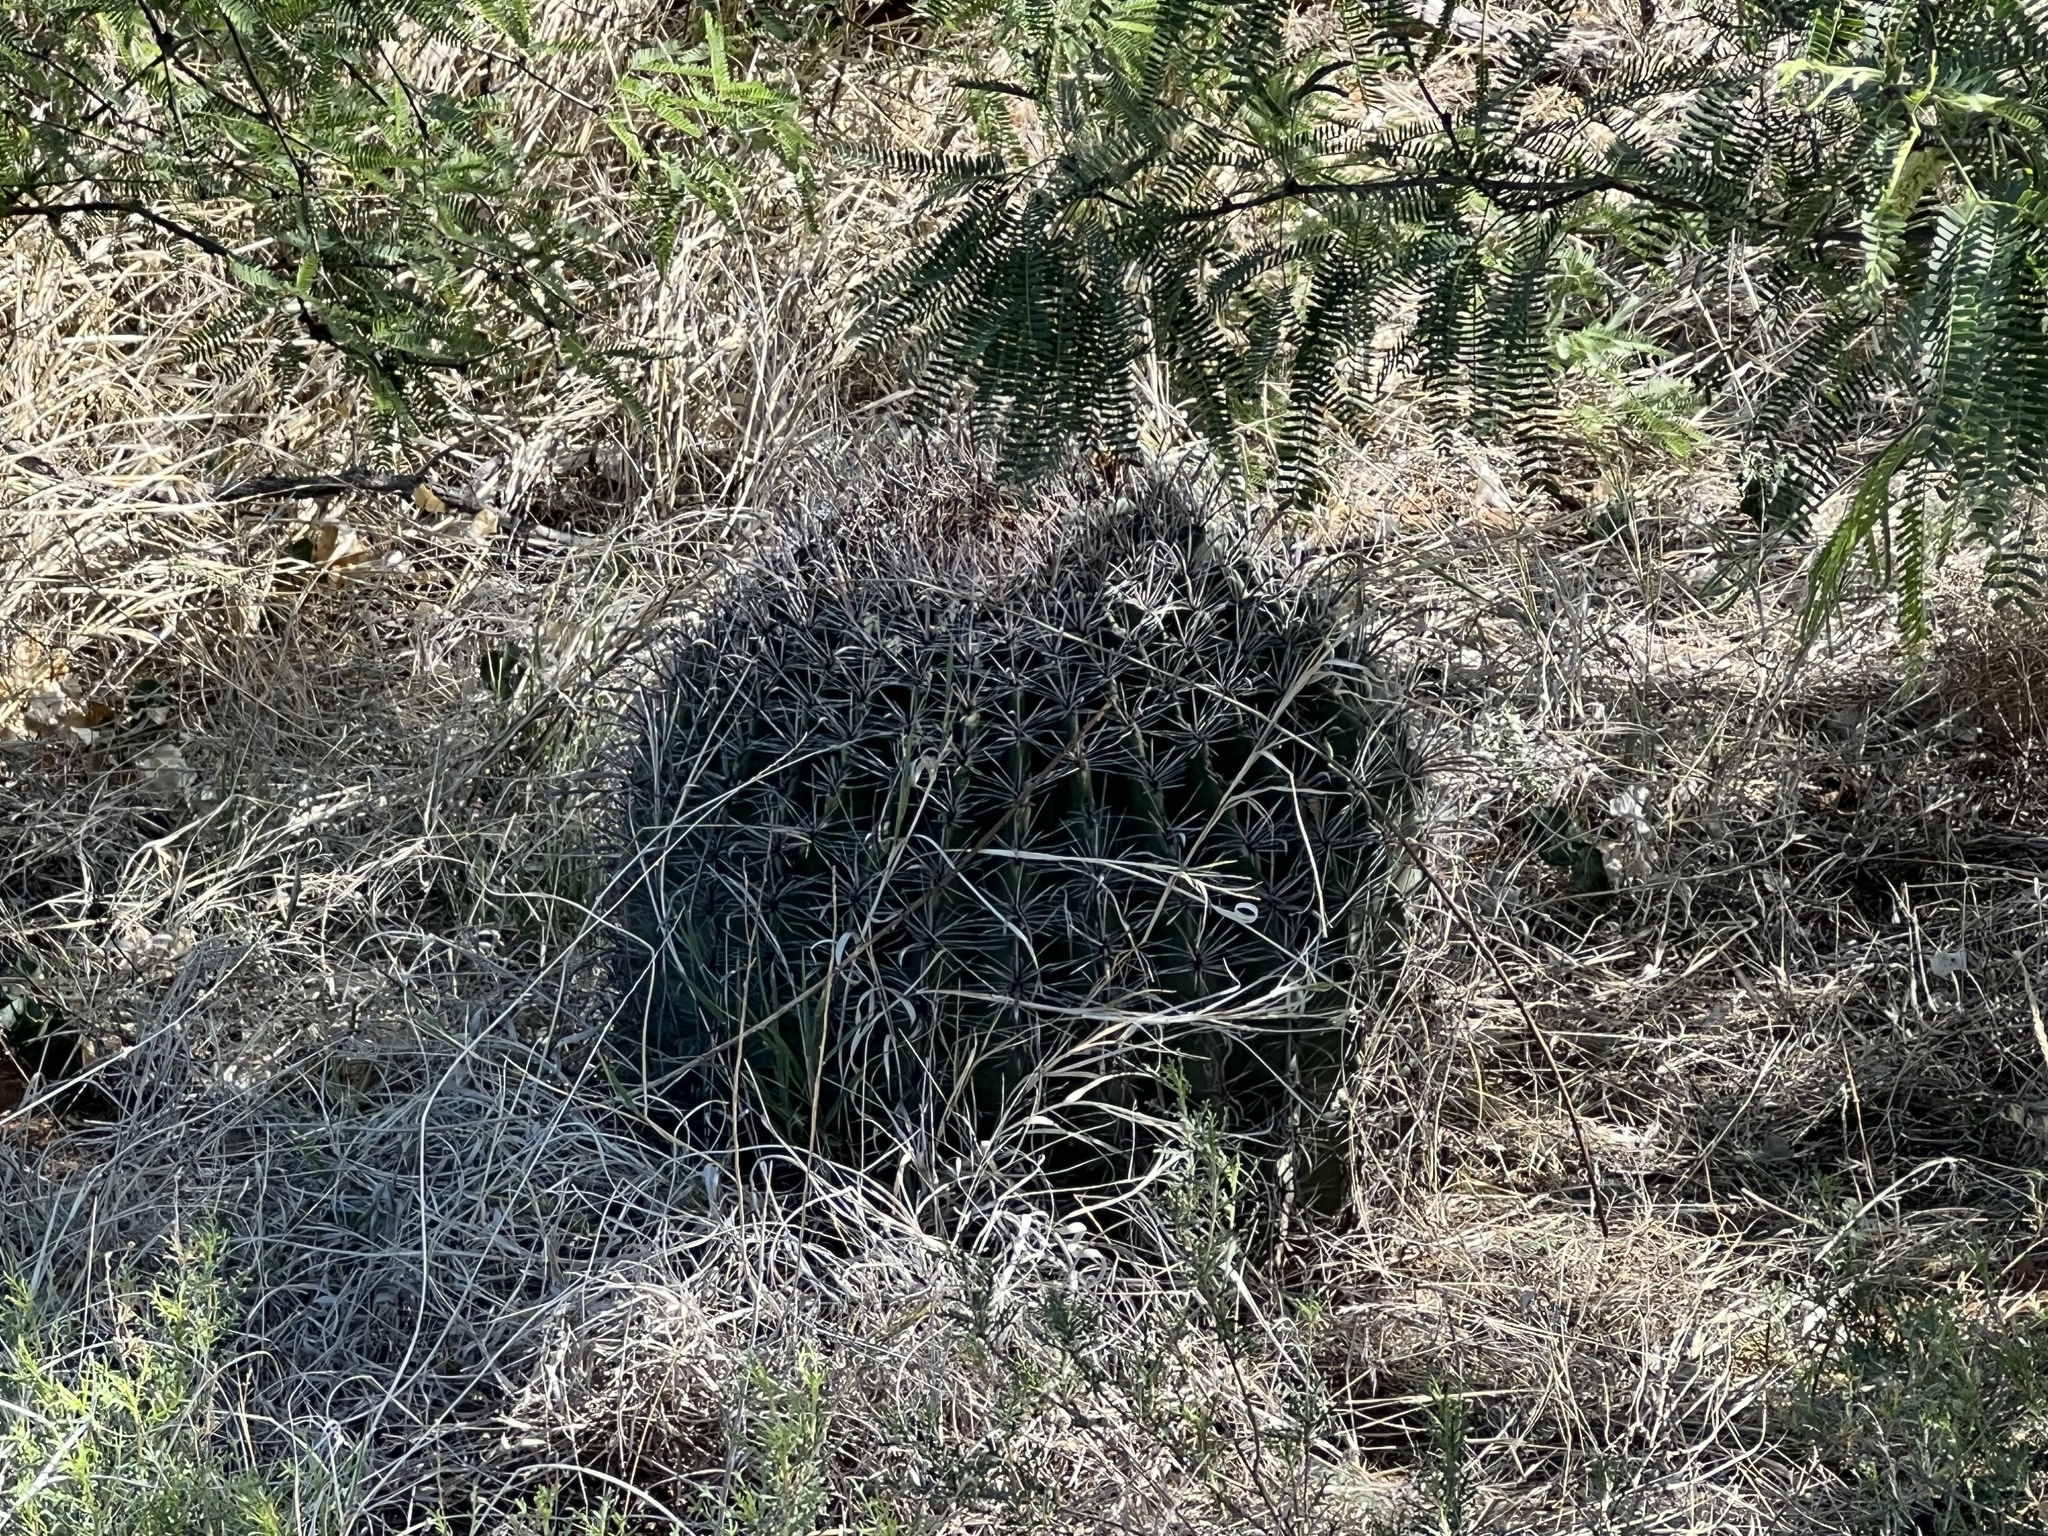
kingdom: Plantae
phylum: Tracheophyta
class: Magnoliopsida
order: Caryophyllales
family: Cactaceae
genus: Ferocactus
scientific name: Ferocactus wislizeni
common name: Candy barrel cactus
